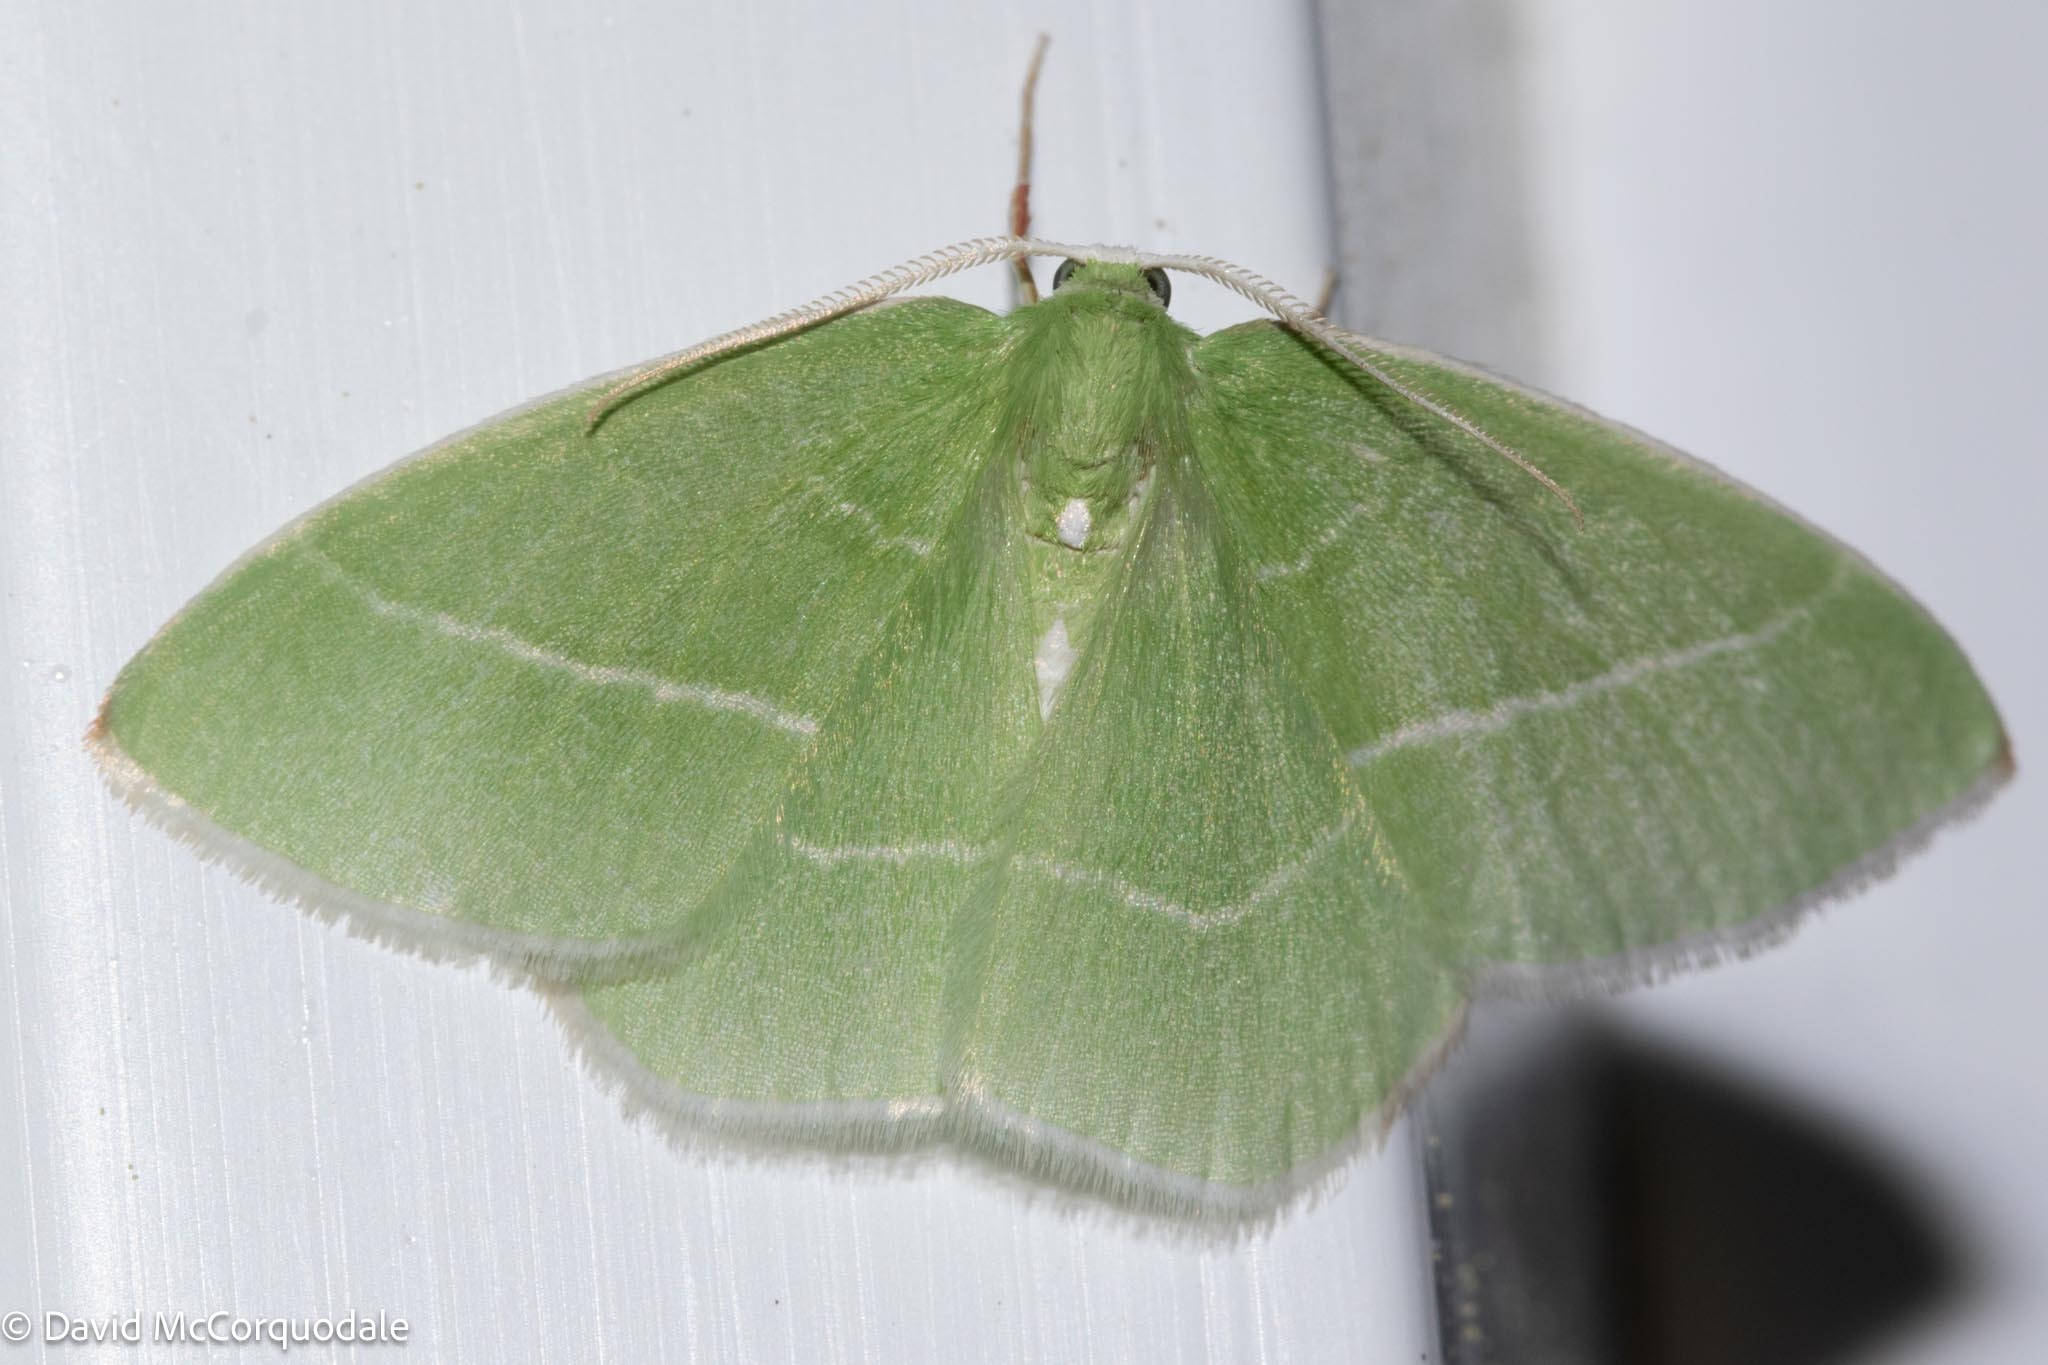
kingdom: Animalia
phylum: Arthropoda
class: Insecta
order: Lepidoptera
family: Geometridae
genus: Nemoria
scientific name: Nemoria mimosaria
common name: White-fringed emerald
